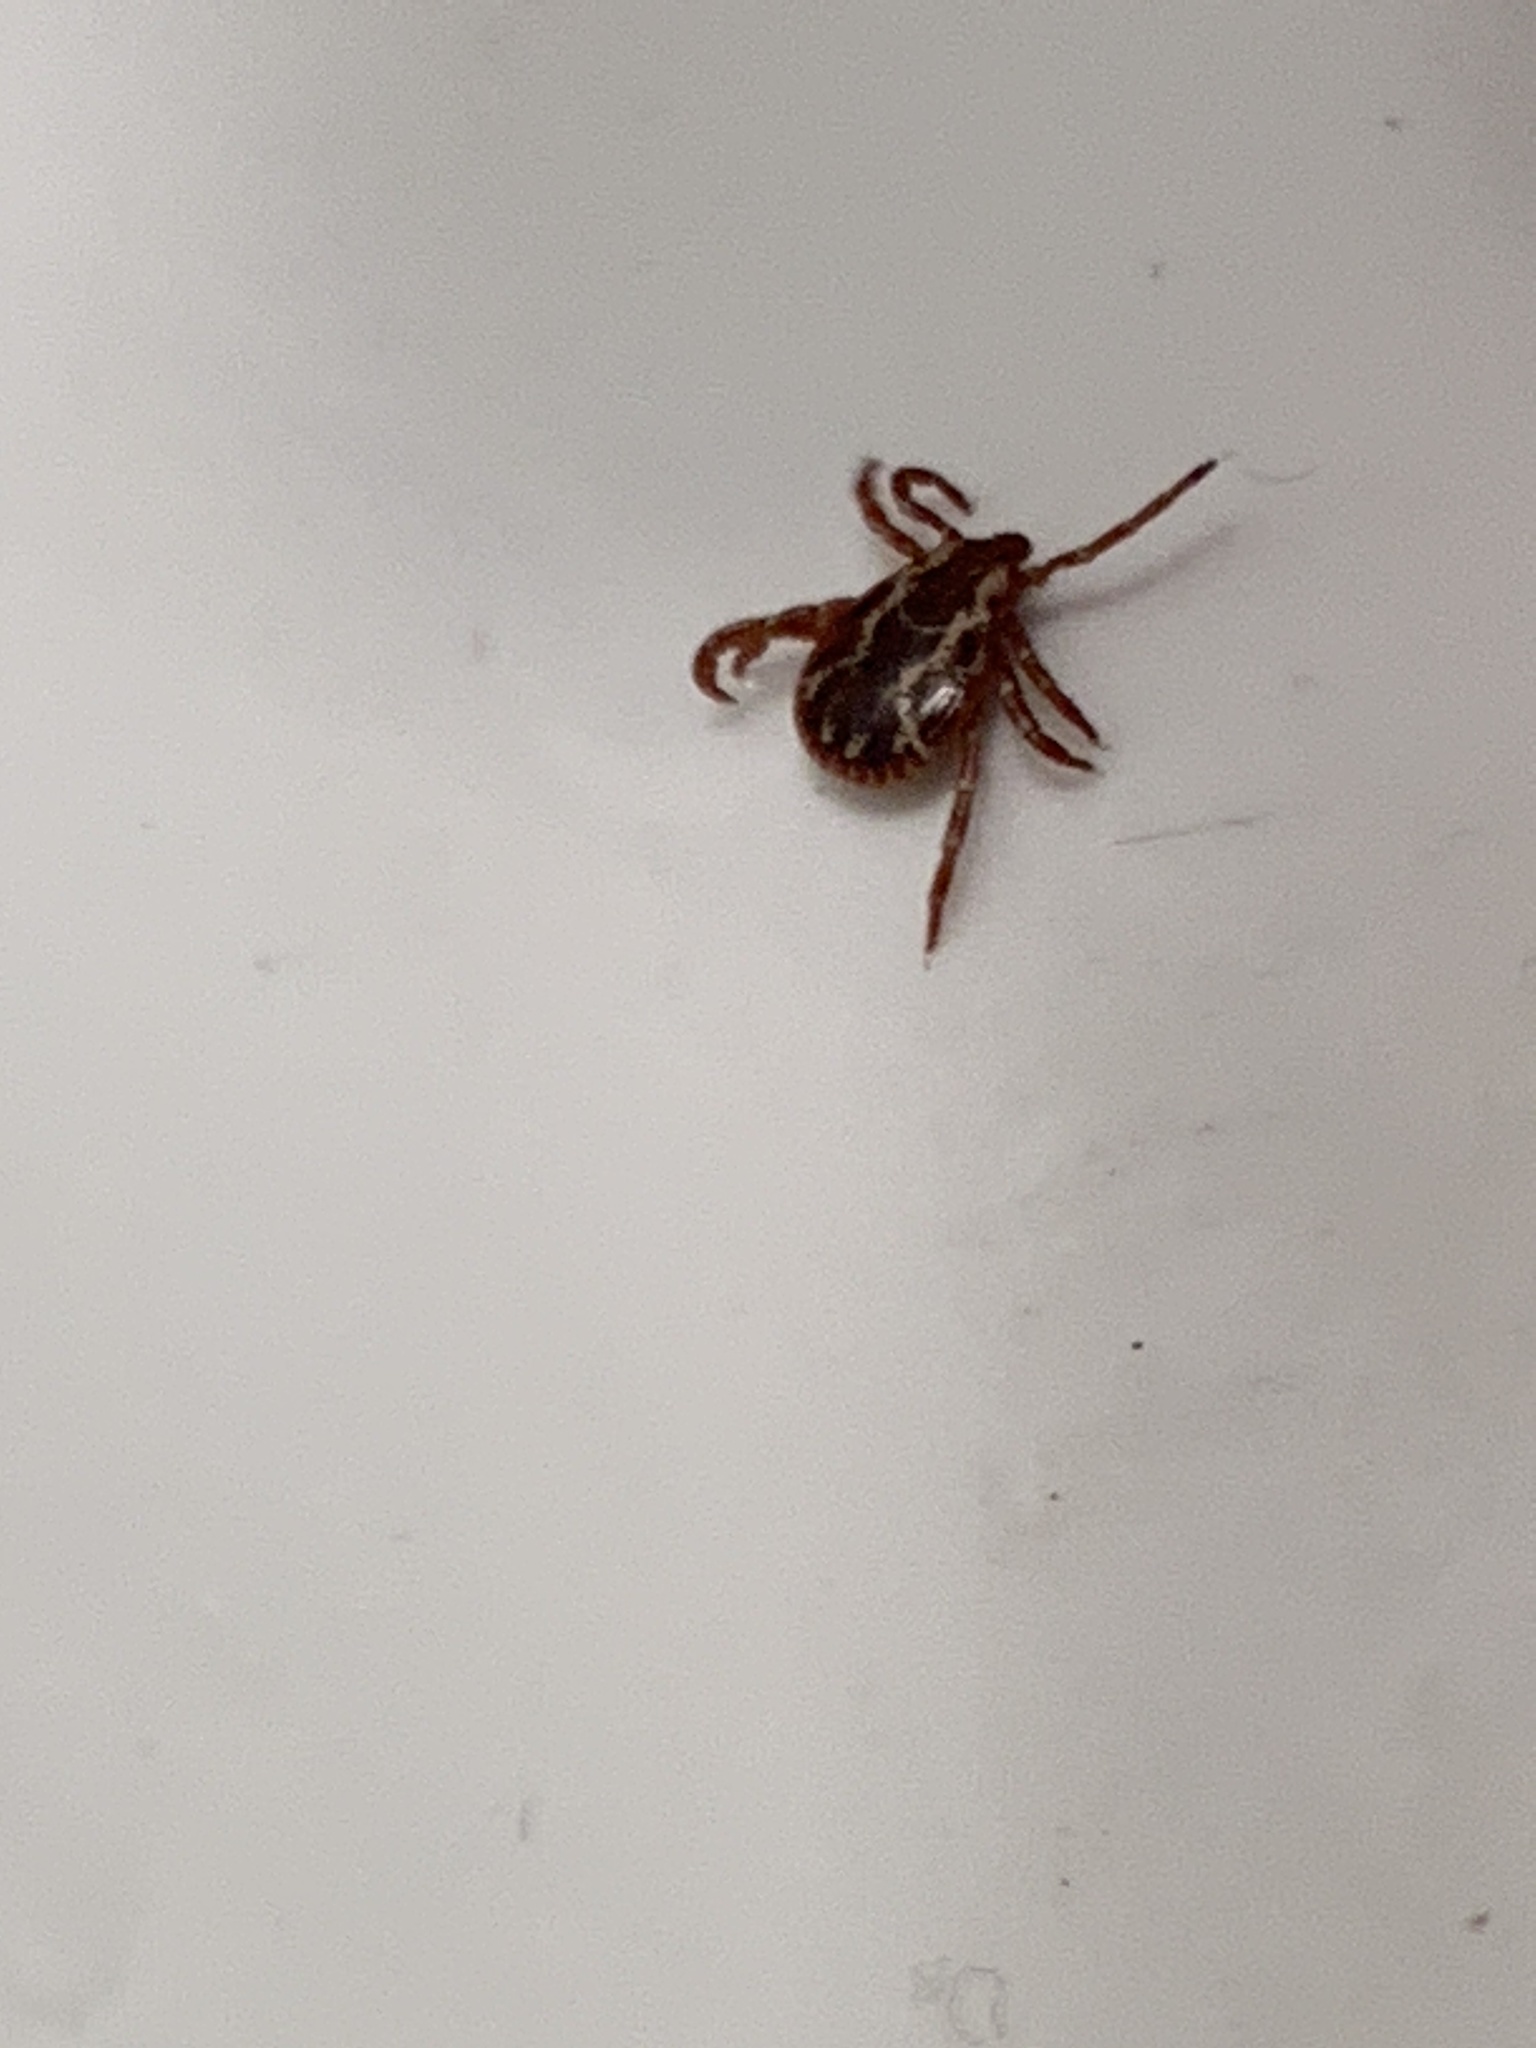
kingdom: Animalia
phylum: Arthropoda
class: Arachnida
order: Ixodida
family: Ixodidae
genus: Dermacentor
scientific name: Dermacentor variabilis
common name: American dog tick
